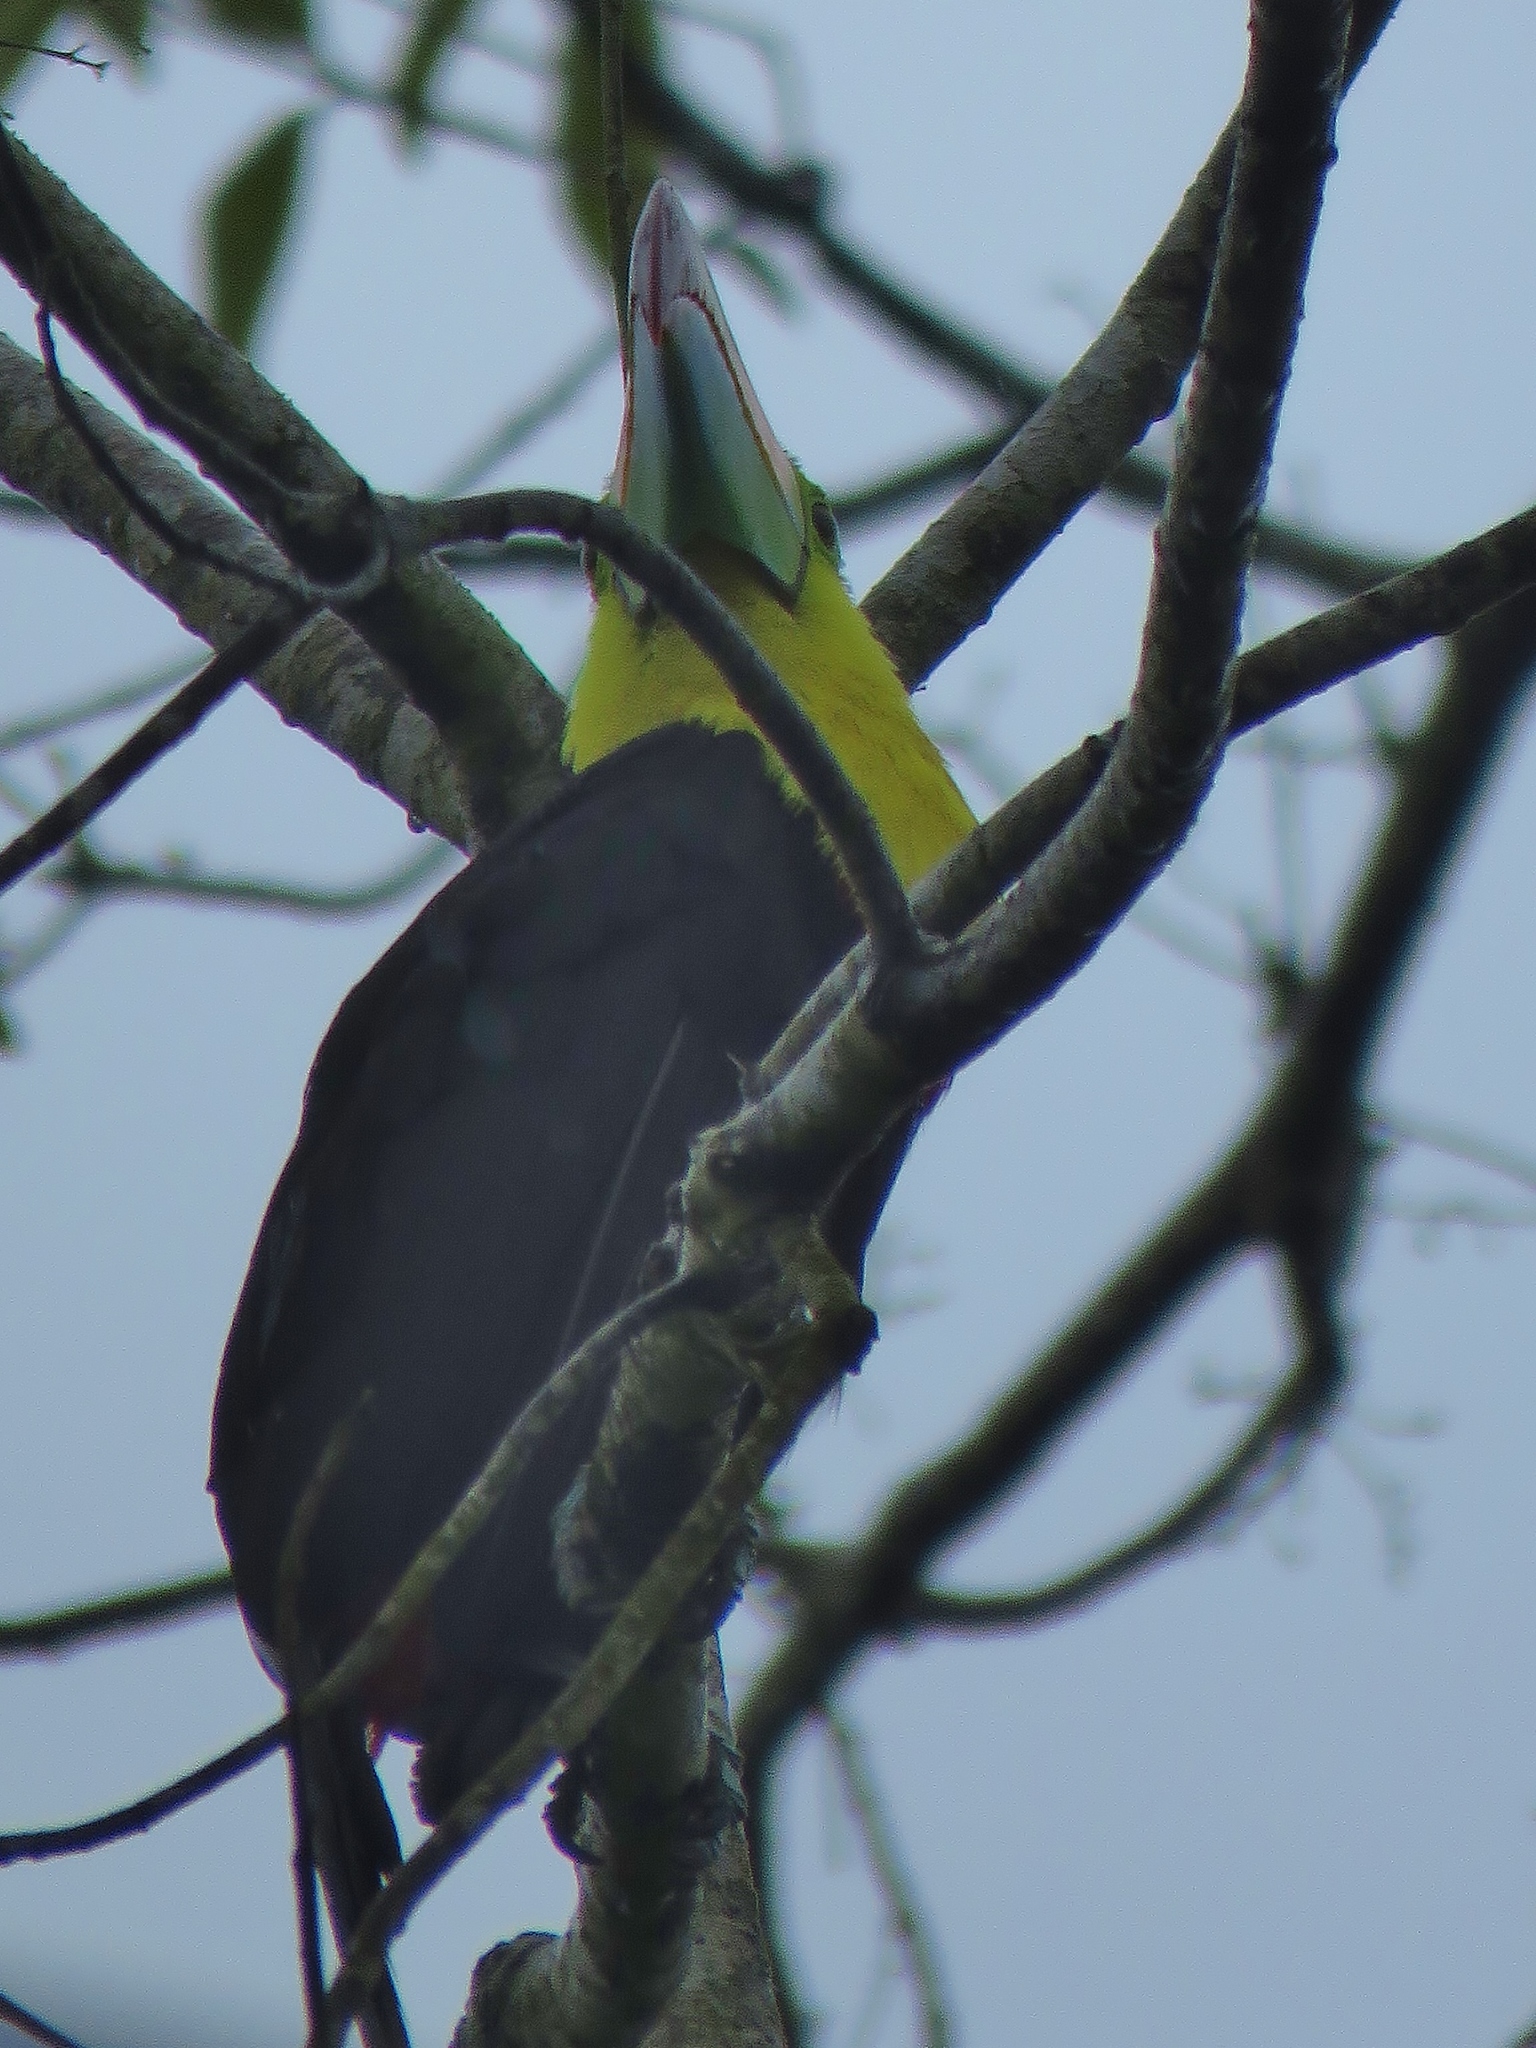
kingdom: Animalia
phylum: Chordata
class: Aves
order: Piciformes
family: Ramphastidae
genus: Ramphastos
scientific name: Ramphastos sulfuratus
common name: Keel-billed toucan
